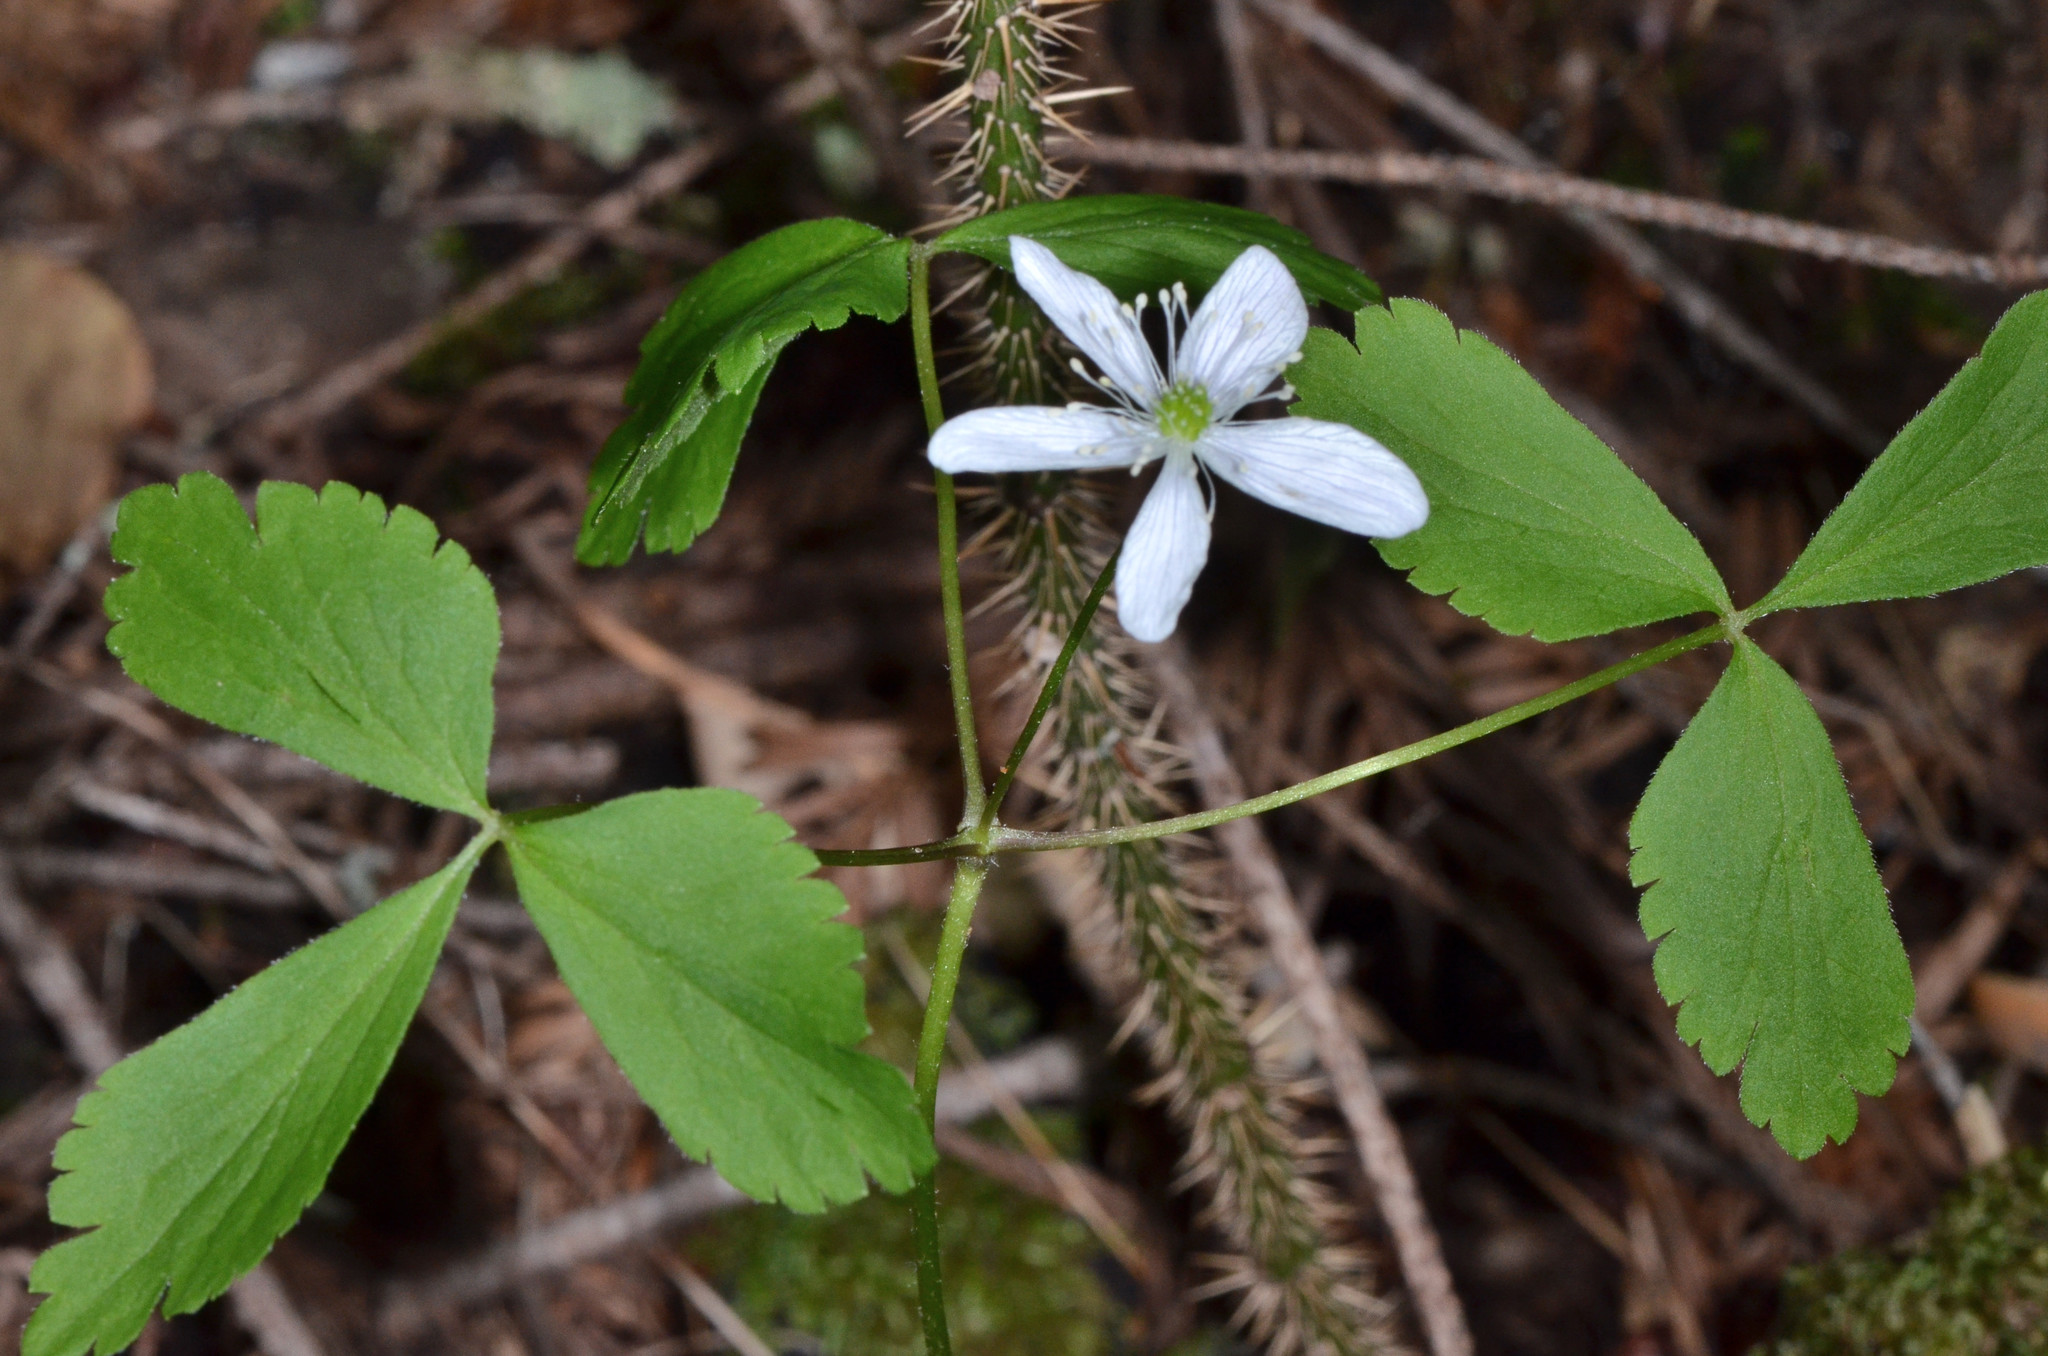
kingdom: Plantae
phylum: Tracheophyta
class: Magnoliopsida
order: Ranunculales
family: Ranunculaceae
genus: Anemone
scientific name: Anemone
